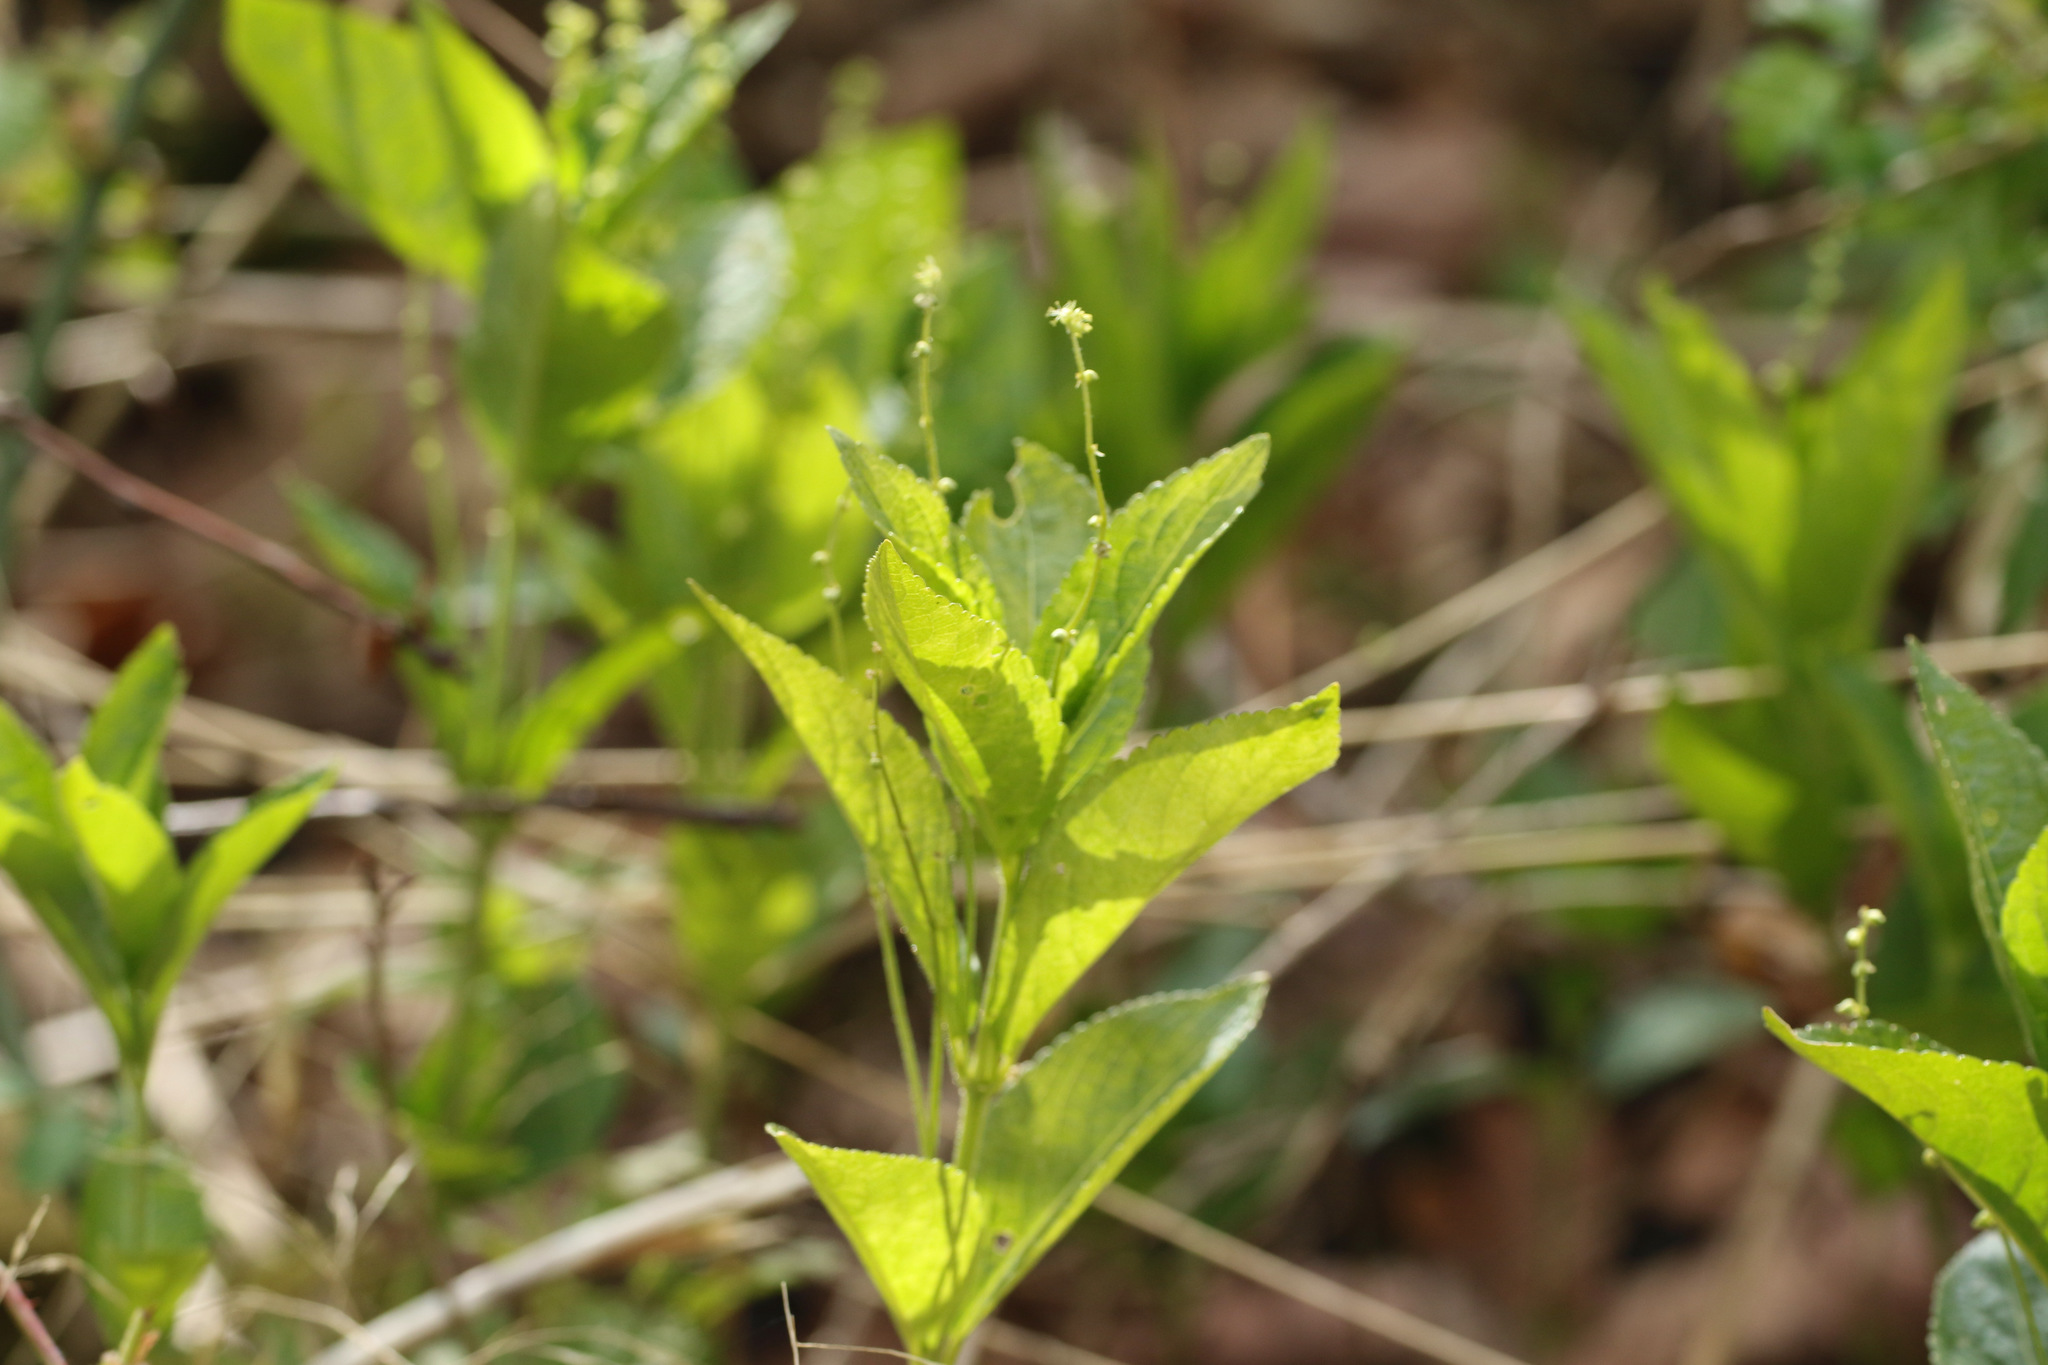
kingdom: Plantae
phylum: Tracheophyta
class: Magnoliopsida
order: Malpighiales
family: Euphorbiaceae
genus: Mercurialis
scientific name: Mercurialis perennis
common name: Dog mercury
